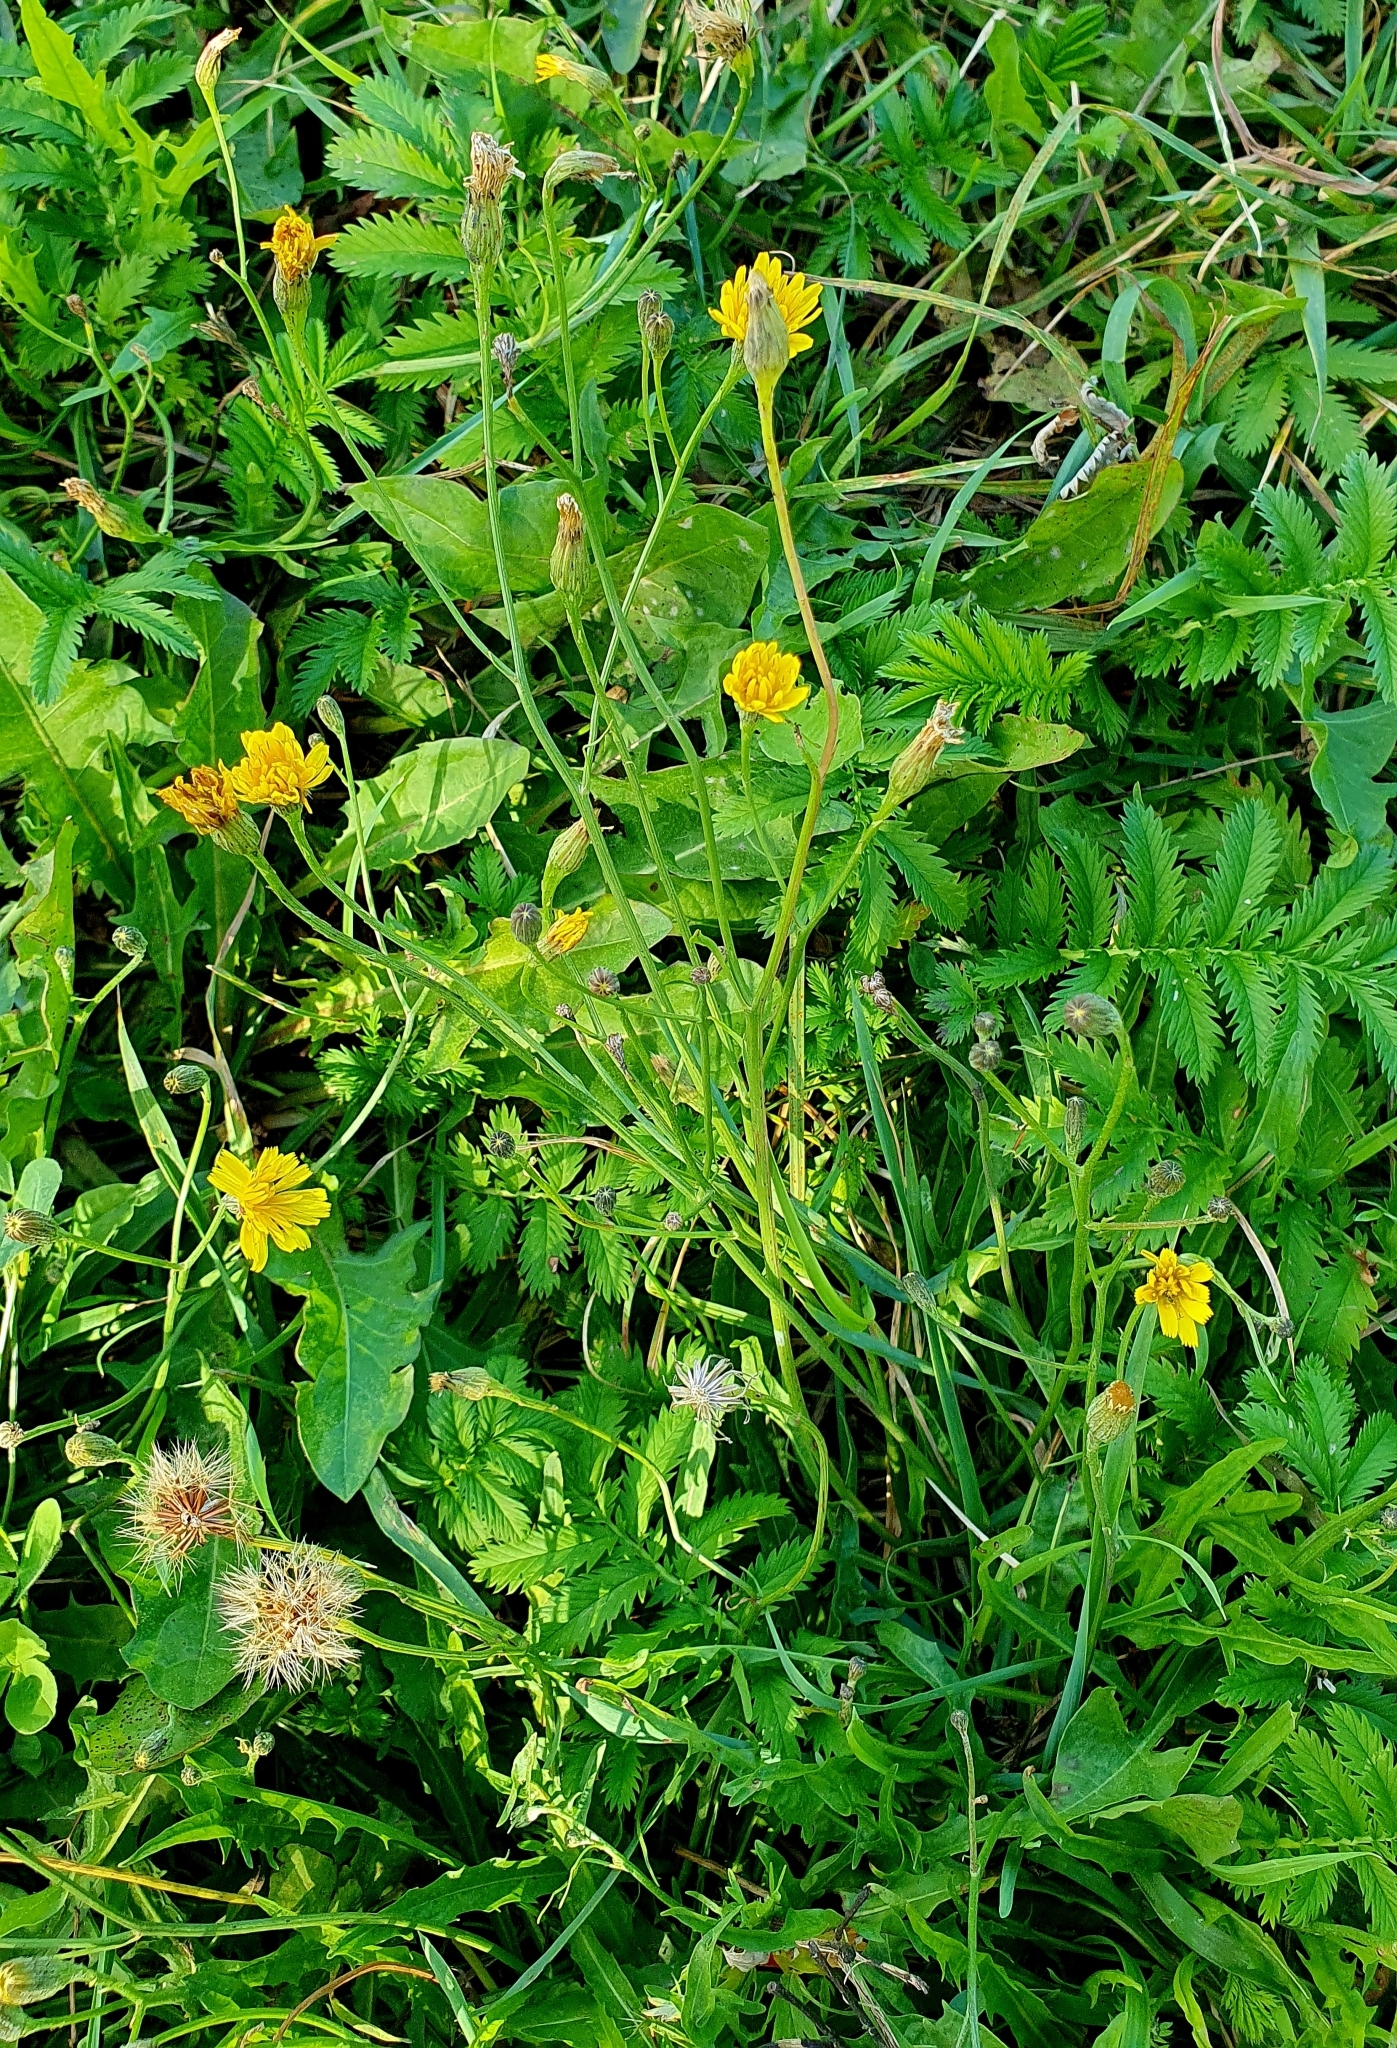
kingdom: Plantae
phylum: Tracheophyta
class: Magnoliopsida
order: Asterales
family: Asteraceae
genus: Scorzoneroides
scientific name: Scorzoneroides autumnalis
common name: Autumn hawkbit
